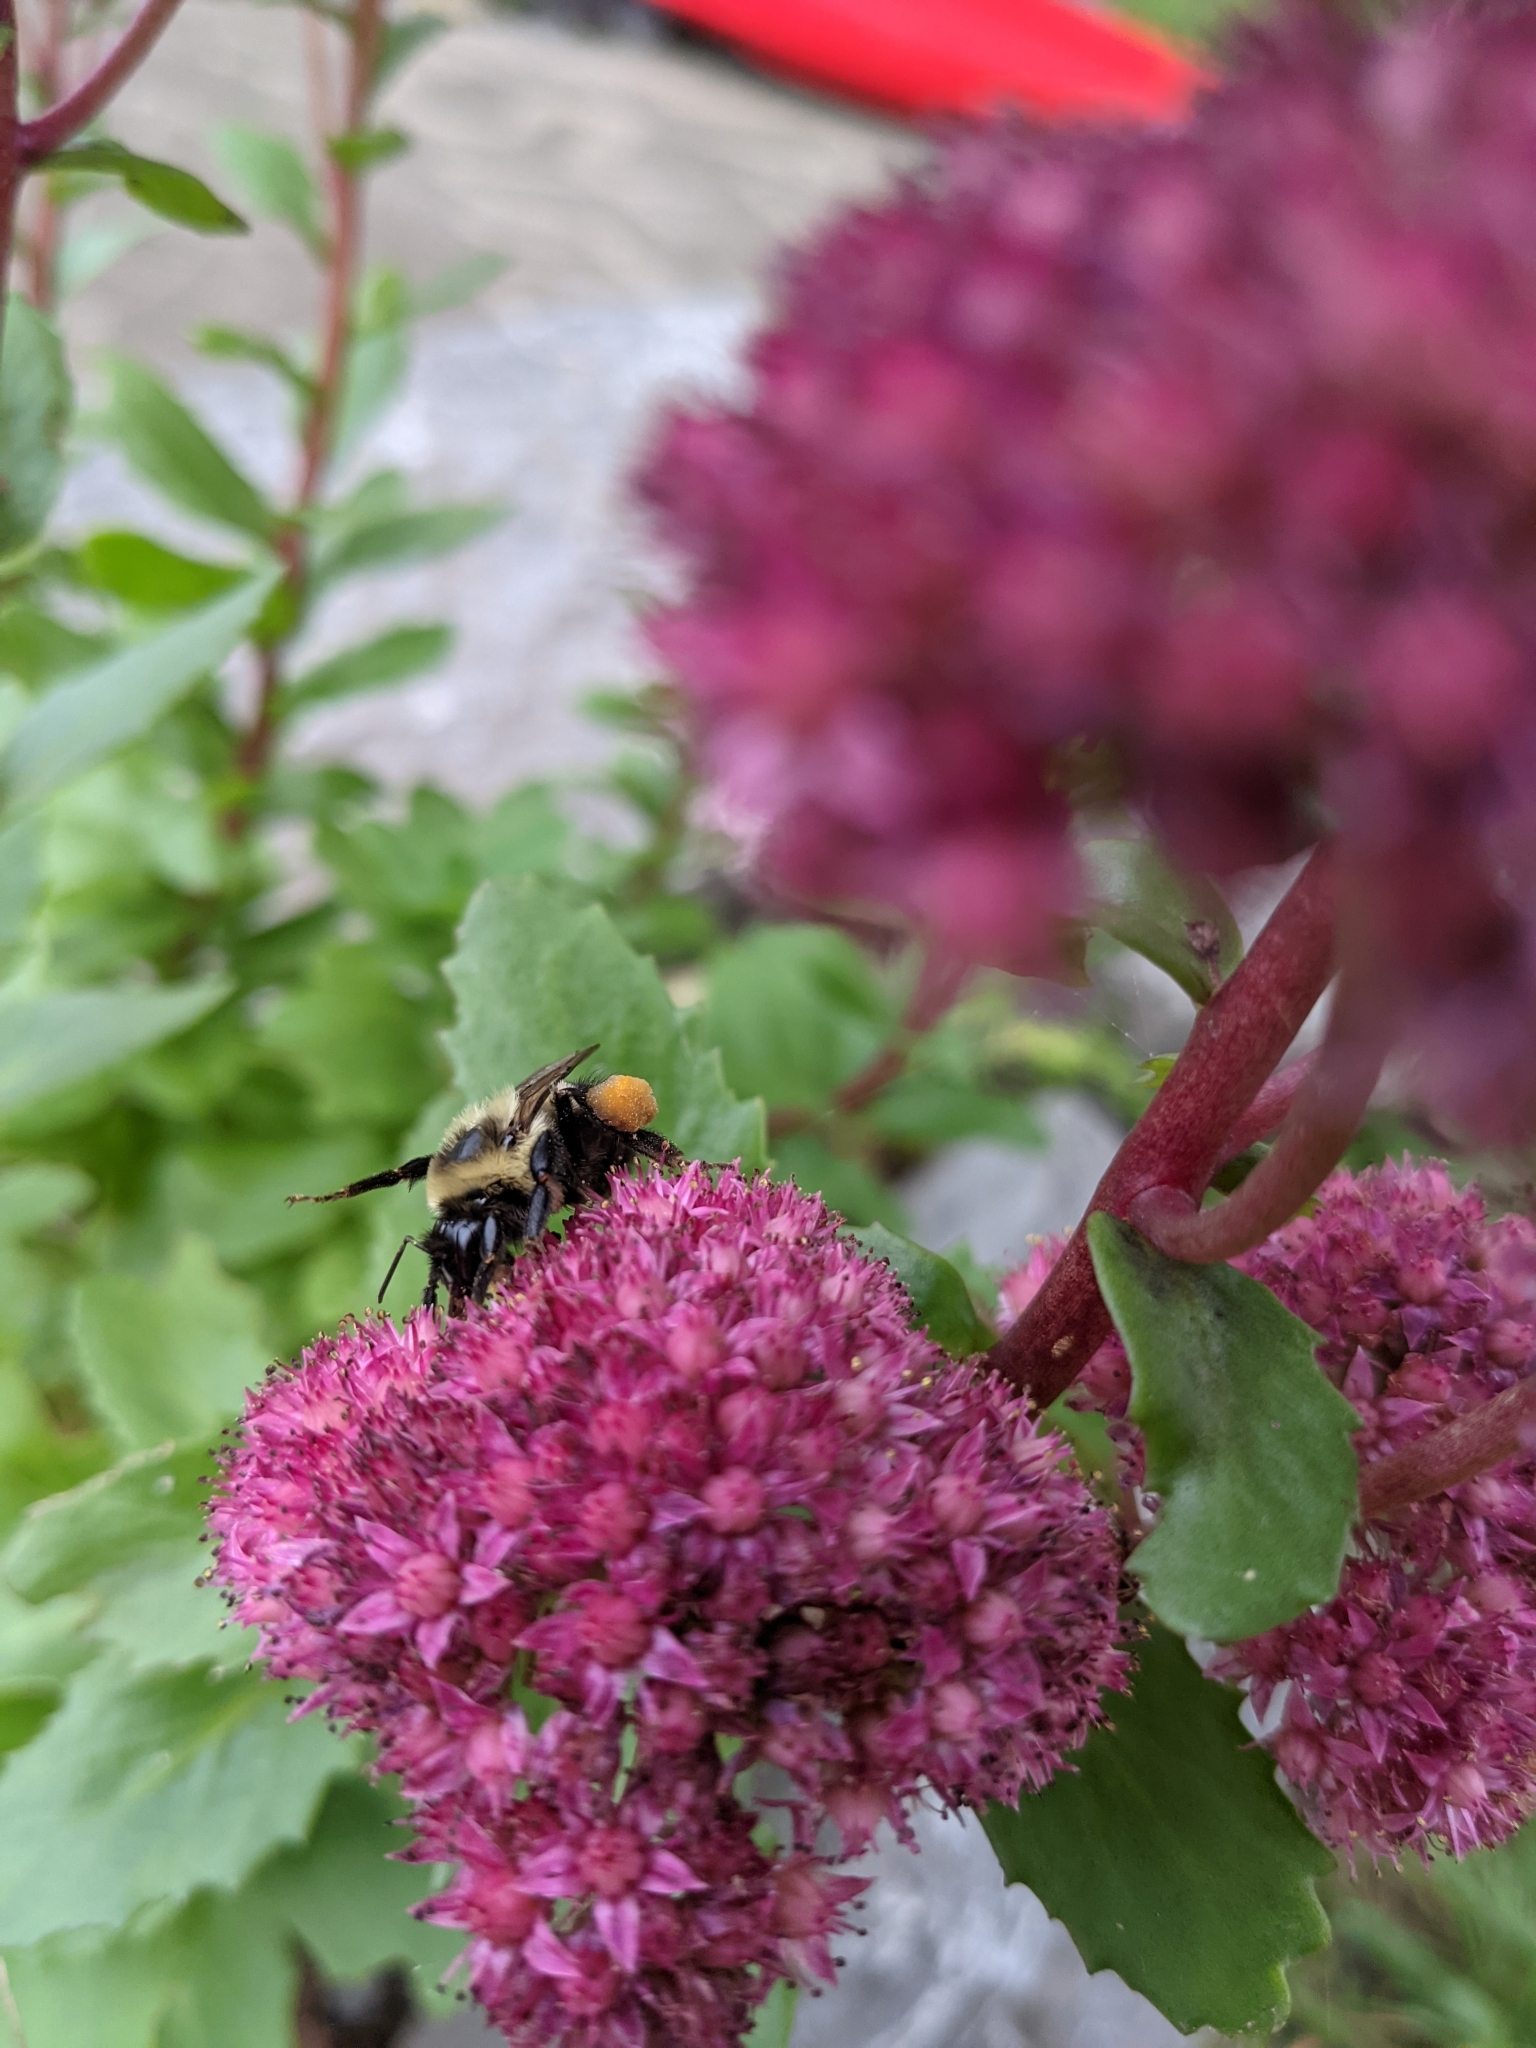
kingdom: Animalia
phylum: Arthropoda
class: Insecta
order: Hymenoptera
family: Apidae
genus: Bombus
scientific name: Bombus impatiens
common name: Common eastern bumble bee
